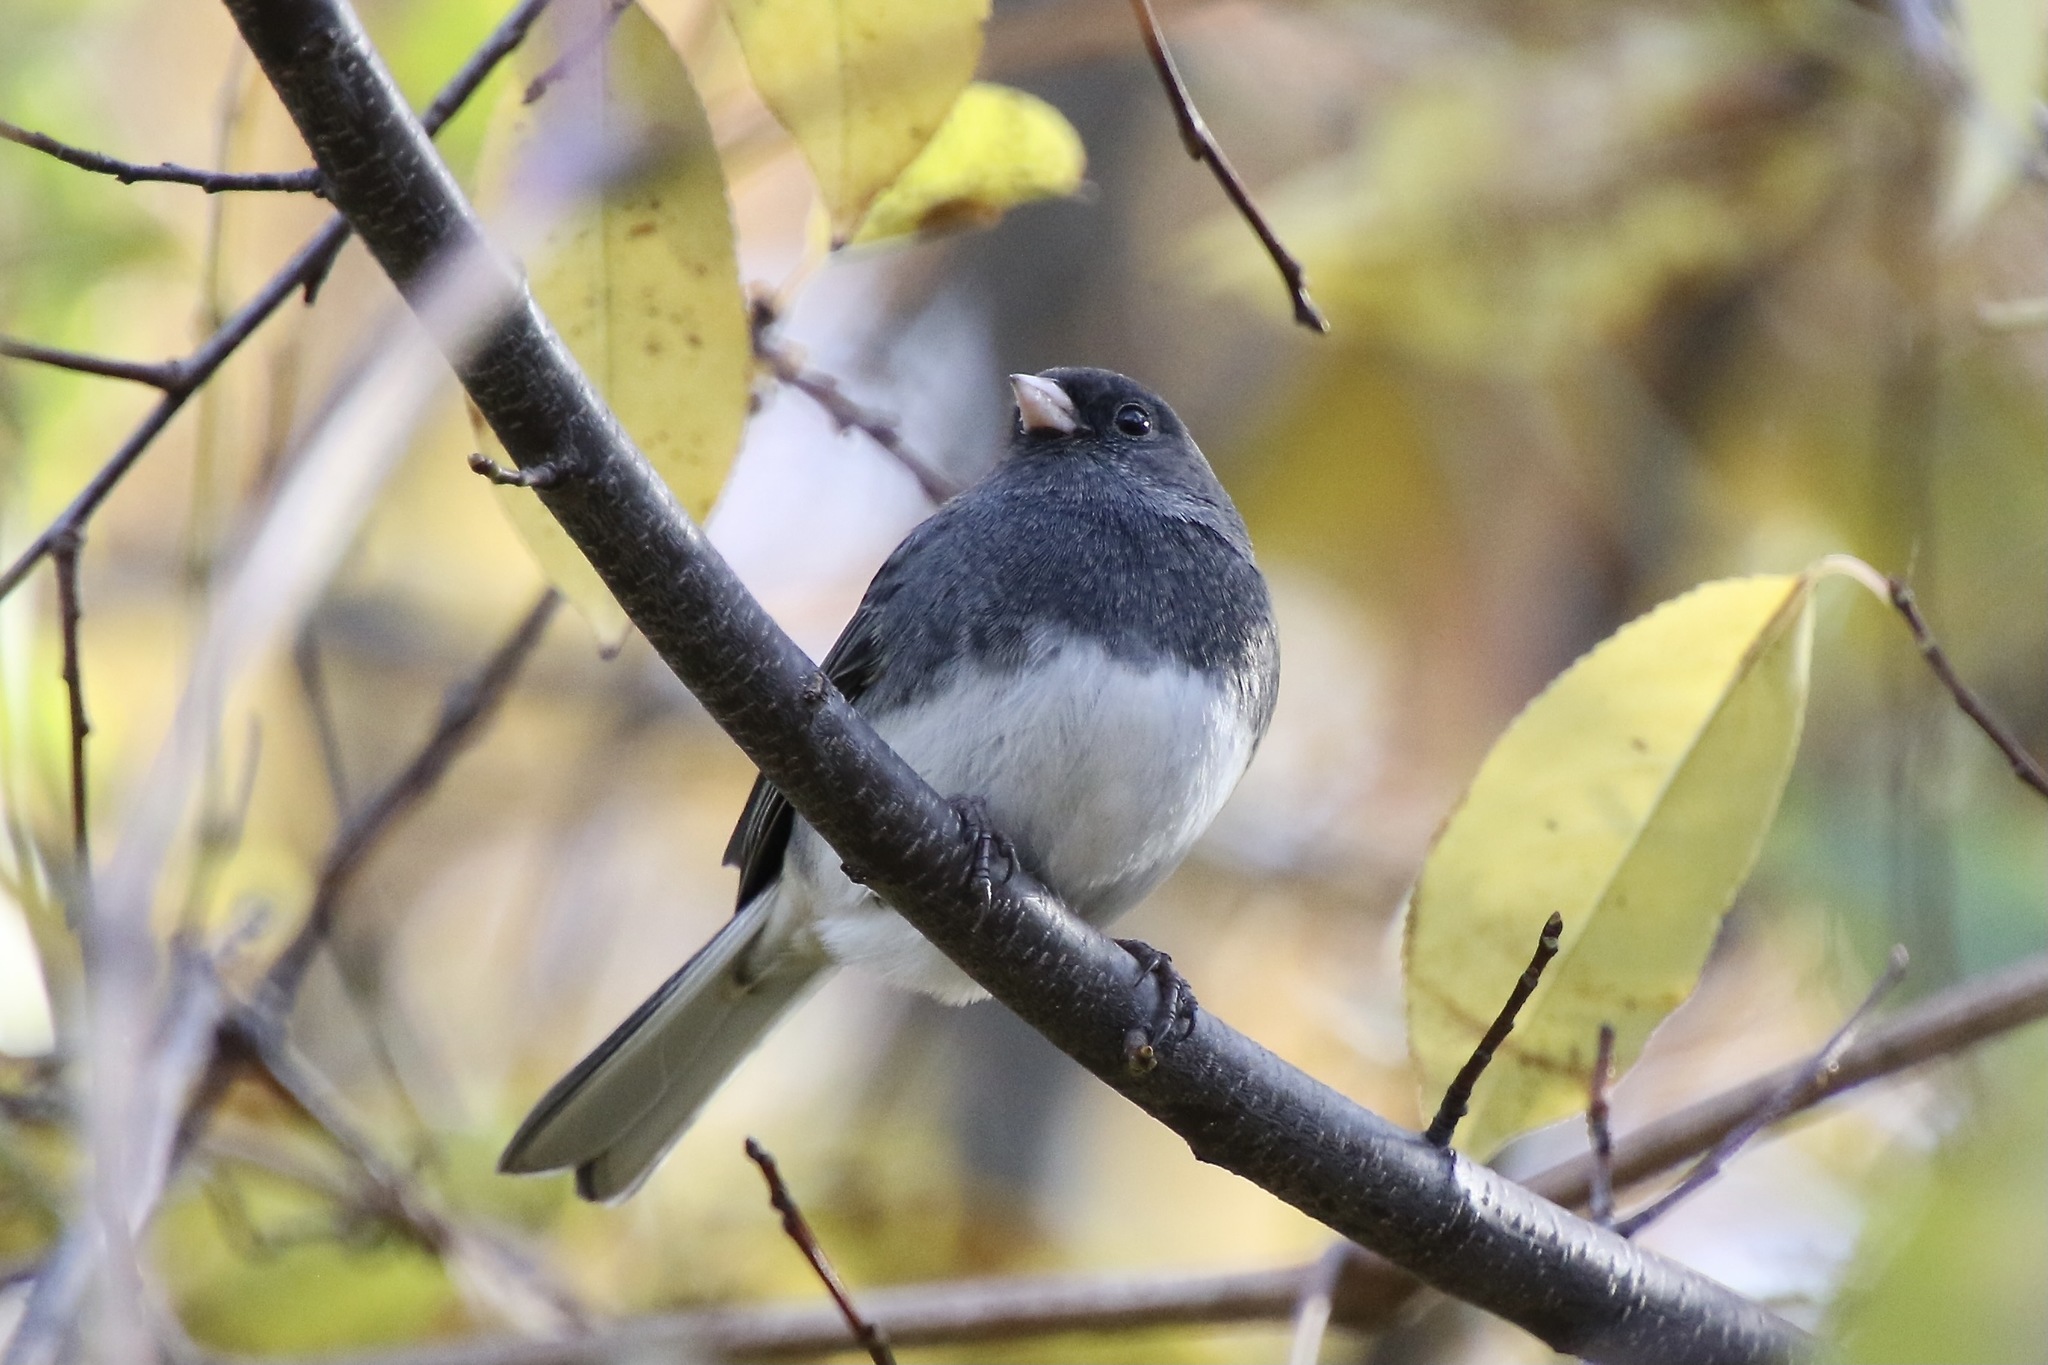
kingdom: Animalia
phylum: Chordata
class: Aves
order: Passeriformes
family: Passerellidae
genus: Junco
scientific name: Junco hyemalis
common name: Dark-eyed junco
